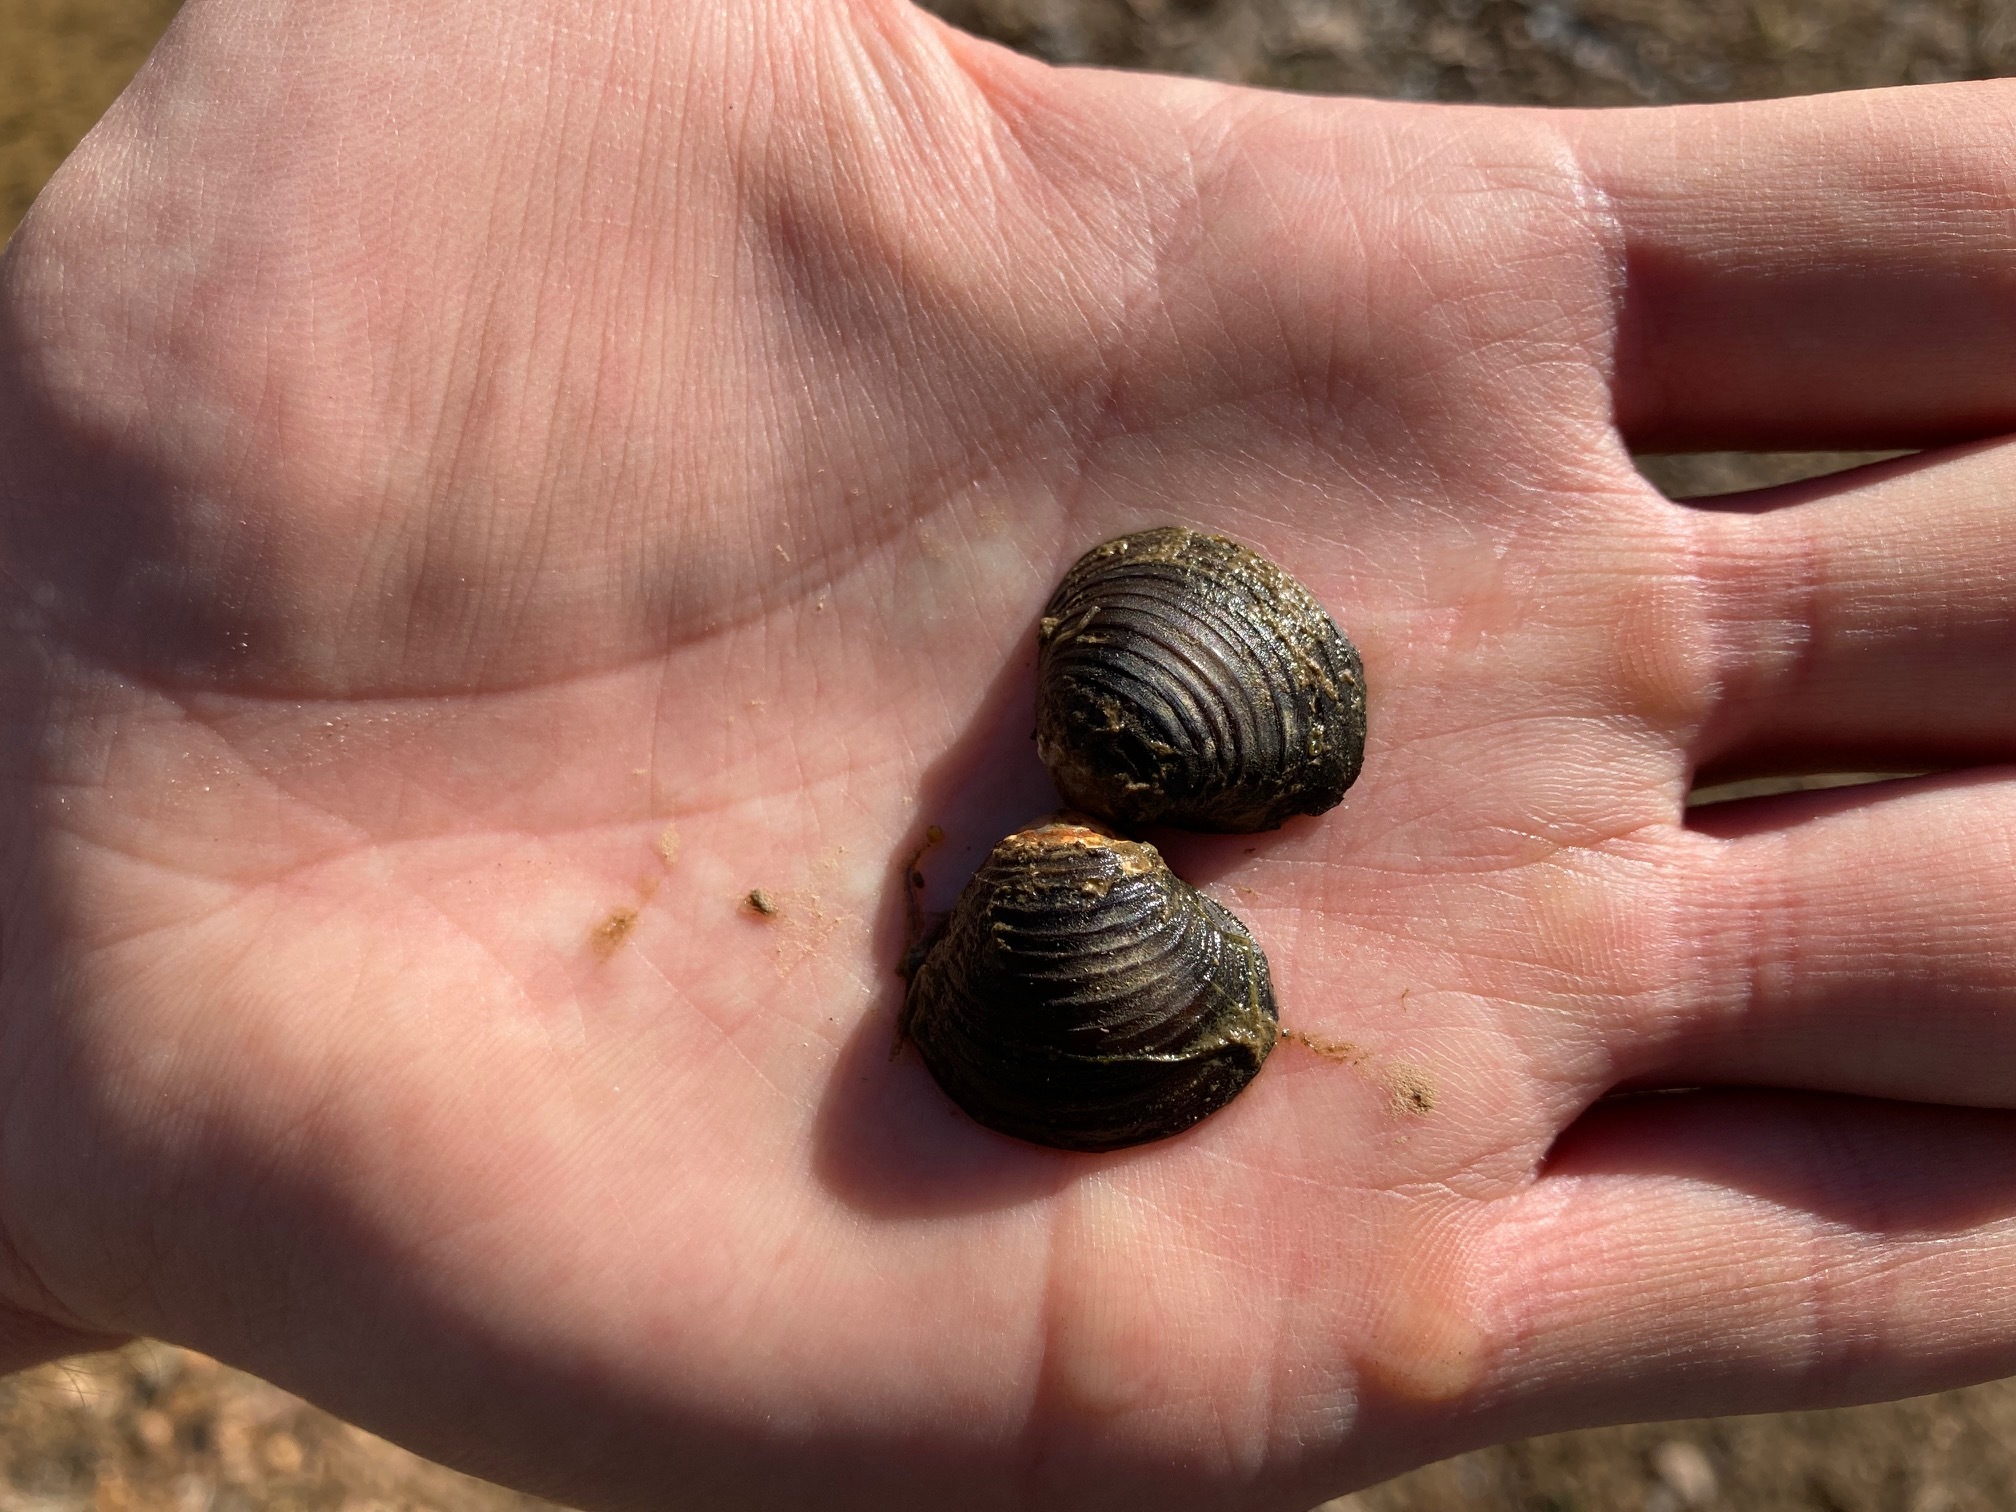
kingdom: Animalia
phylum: Mollusca
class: Bivalvia
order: Venerida
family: Cyrenidae
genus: Corbicula
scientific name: Corbicula fluminea
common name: Asian clam
